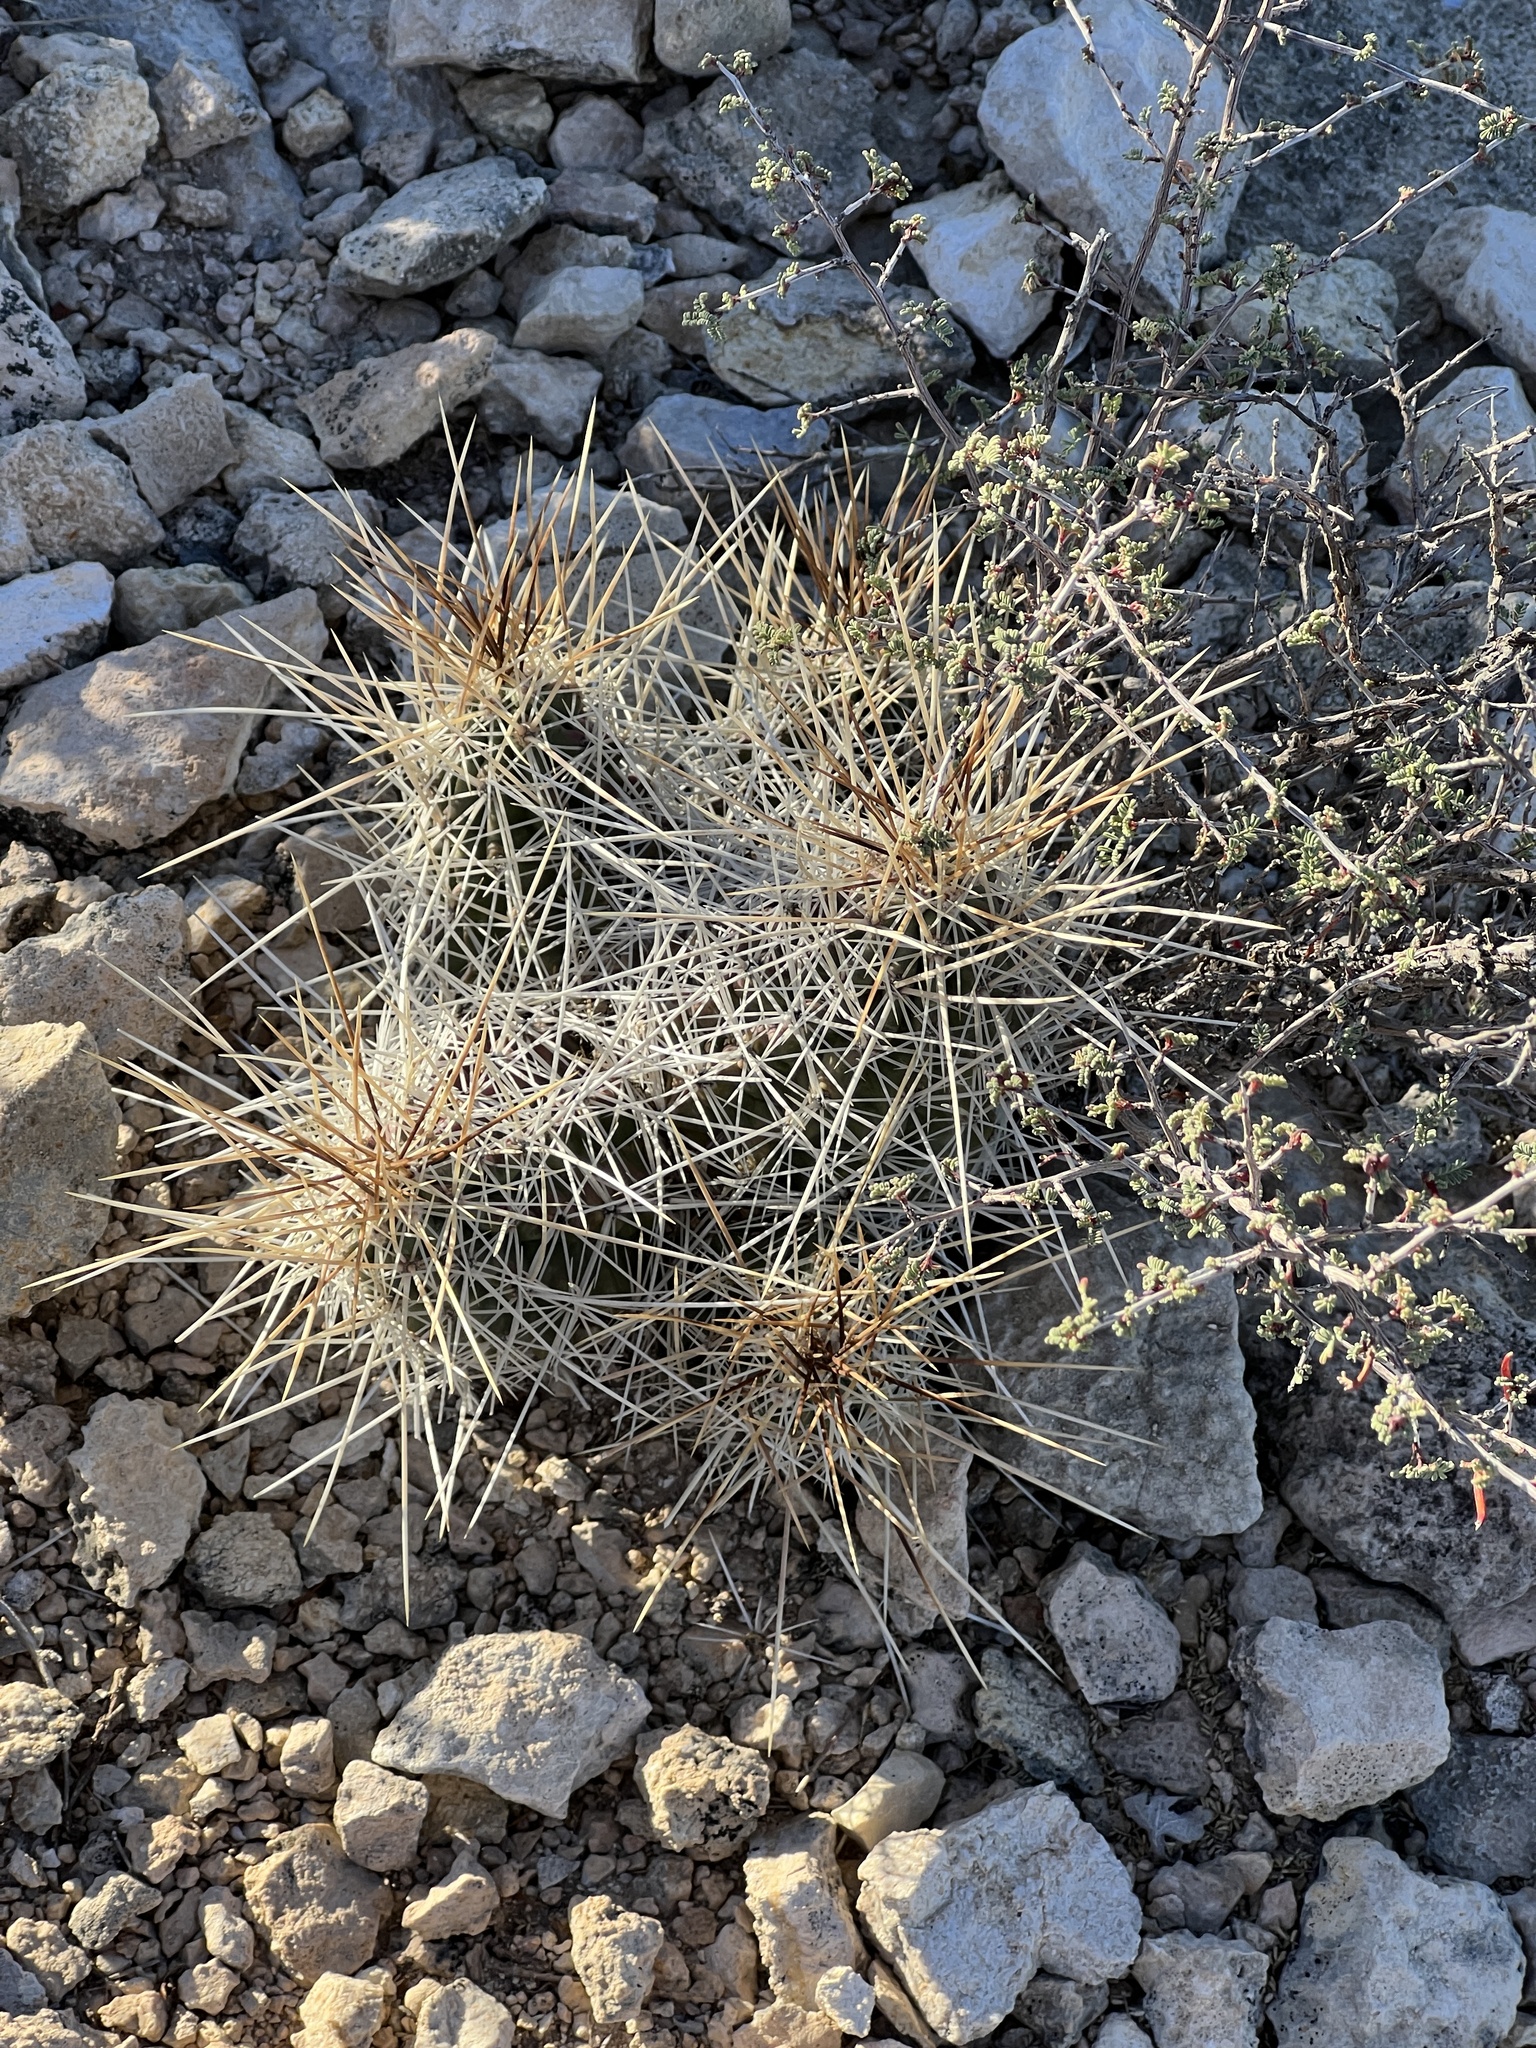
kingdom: Plantae
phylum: Tracheophyta
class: Magnoliopsida
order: Caryophyllales
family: Cactaceae
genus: Echinocereus
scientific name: Echinocereus stramineus
